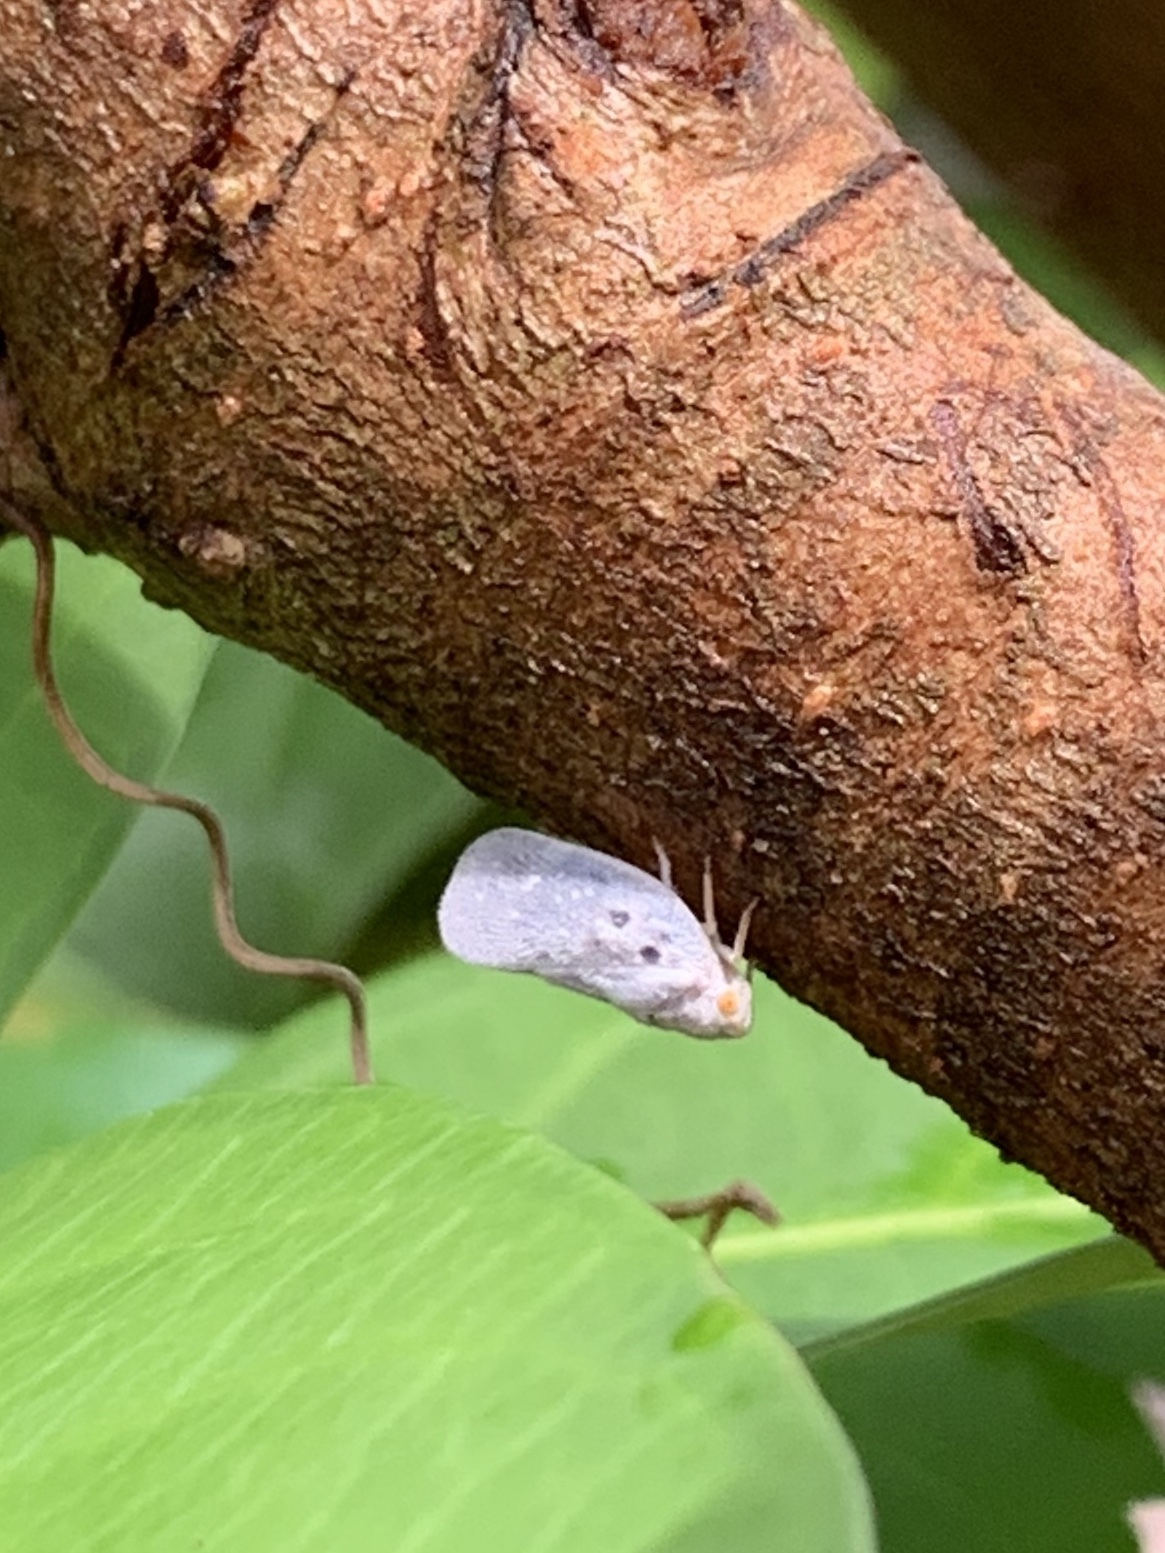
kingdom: Animalia
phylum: Arthropoda
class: Insecta
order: Hemiptera
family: Flatidae
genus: Metcalfa
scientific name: Metcalfa pruinosa
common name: Citrus flatid planthopper
